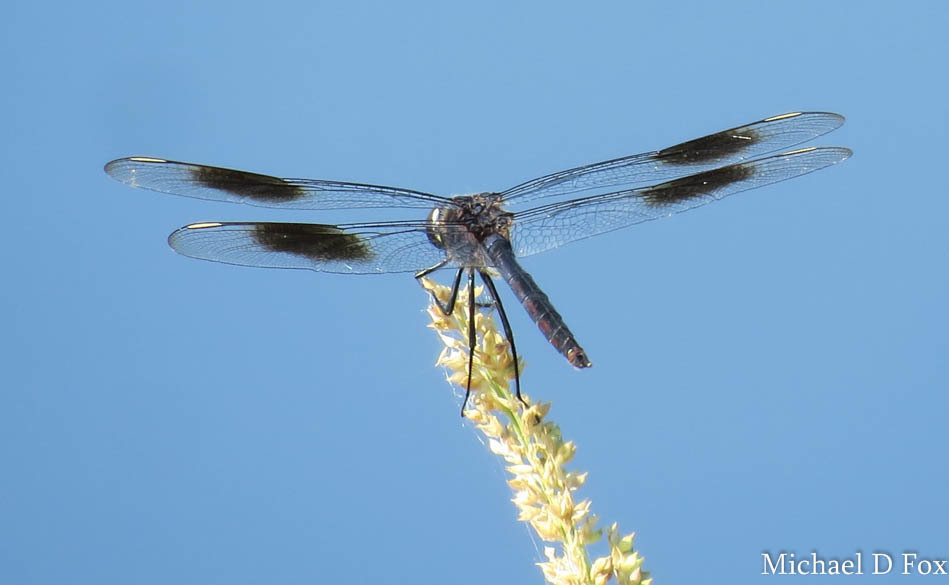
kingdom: Animalia
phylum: Arthropoda
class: Insecta
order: Odonata
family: Libellulidae
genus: Brachymesia
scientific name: Brachymesia gravida
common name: Four-spotted pennant
